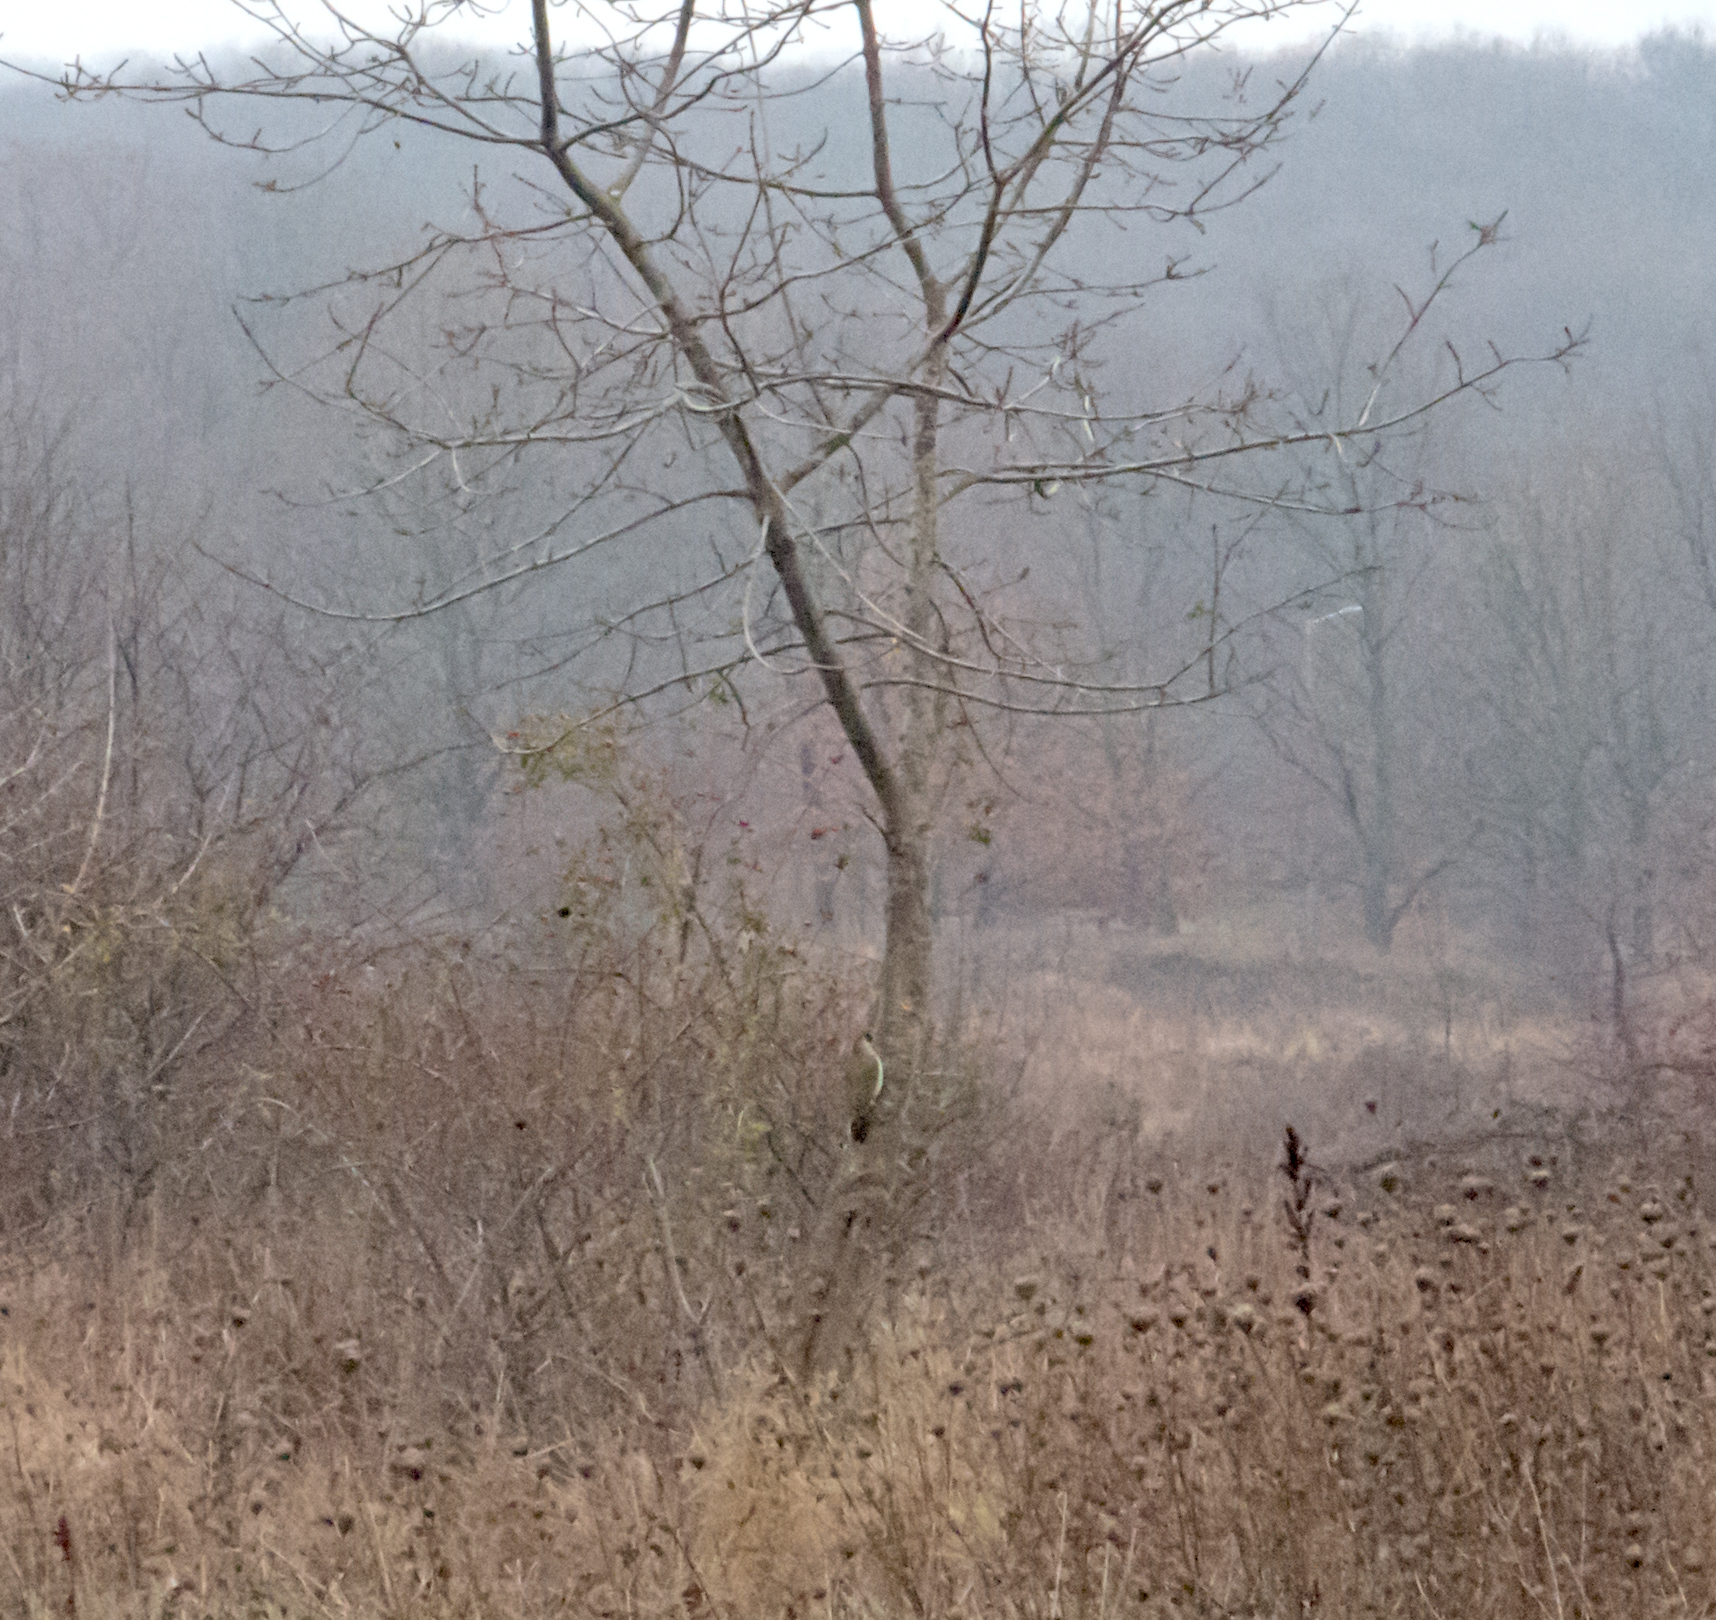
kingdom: Animalia
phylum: Chordata
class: Aves
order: Piciformes
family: Picidae
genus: Picus
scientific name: Picus viridis
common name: European green woodpecker
